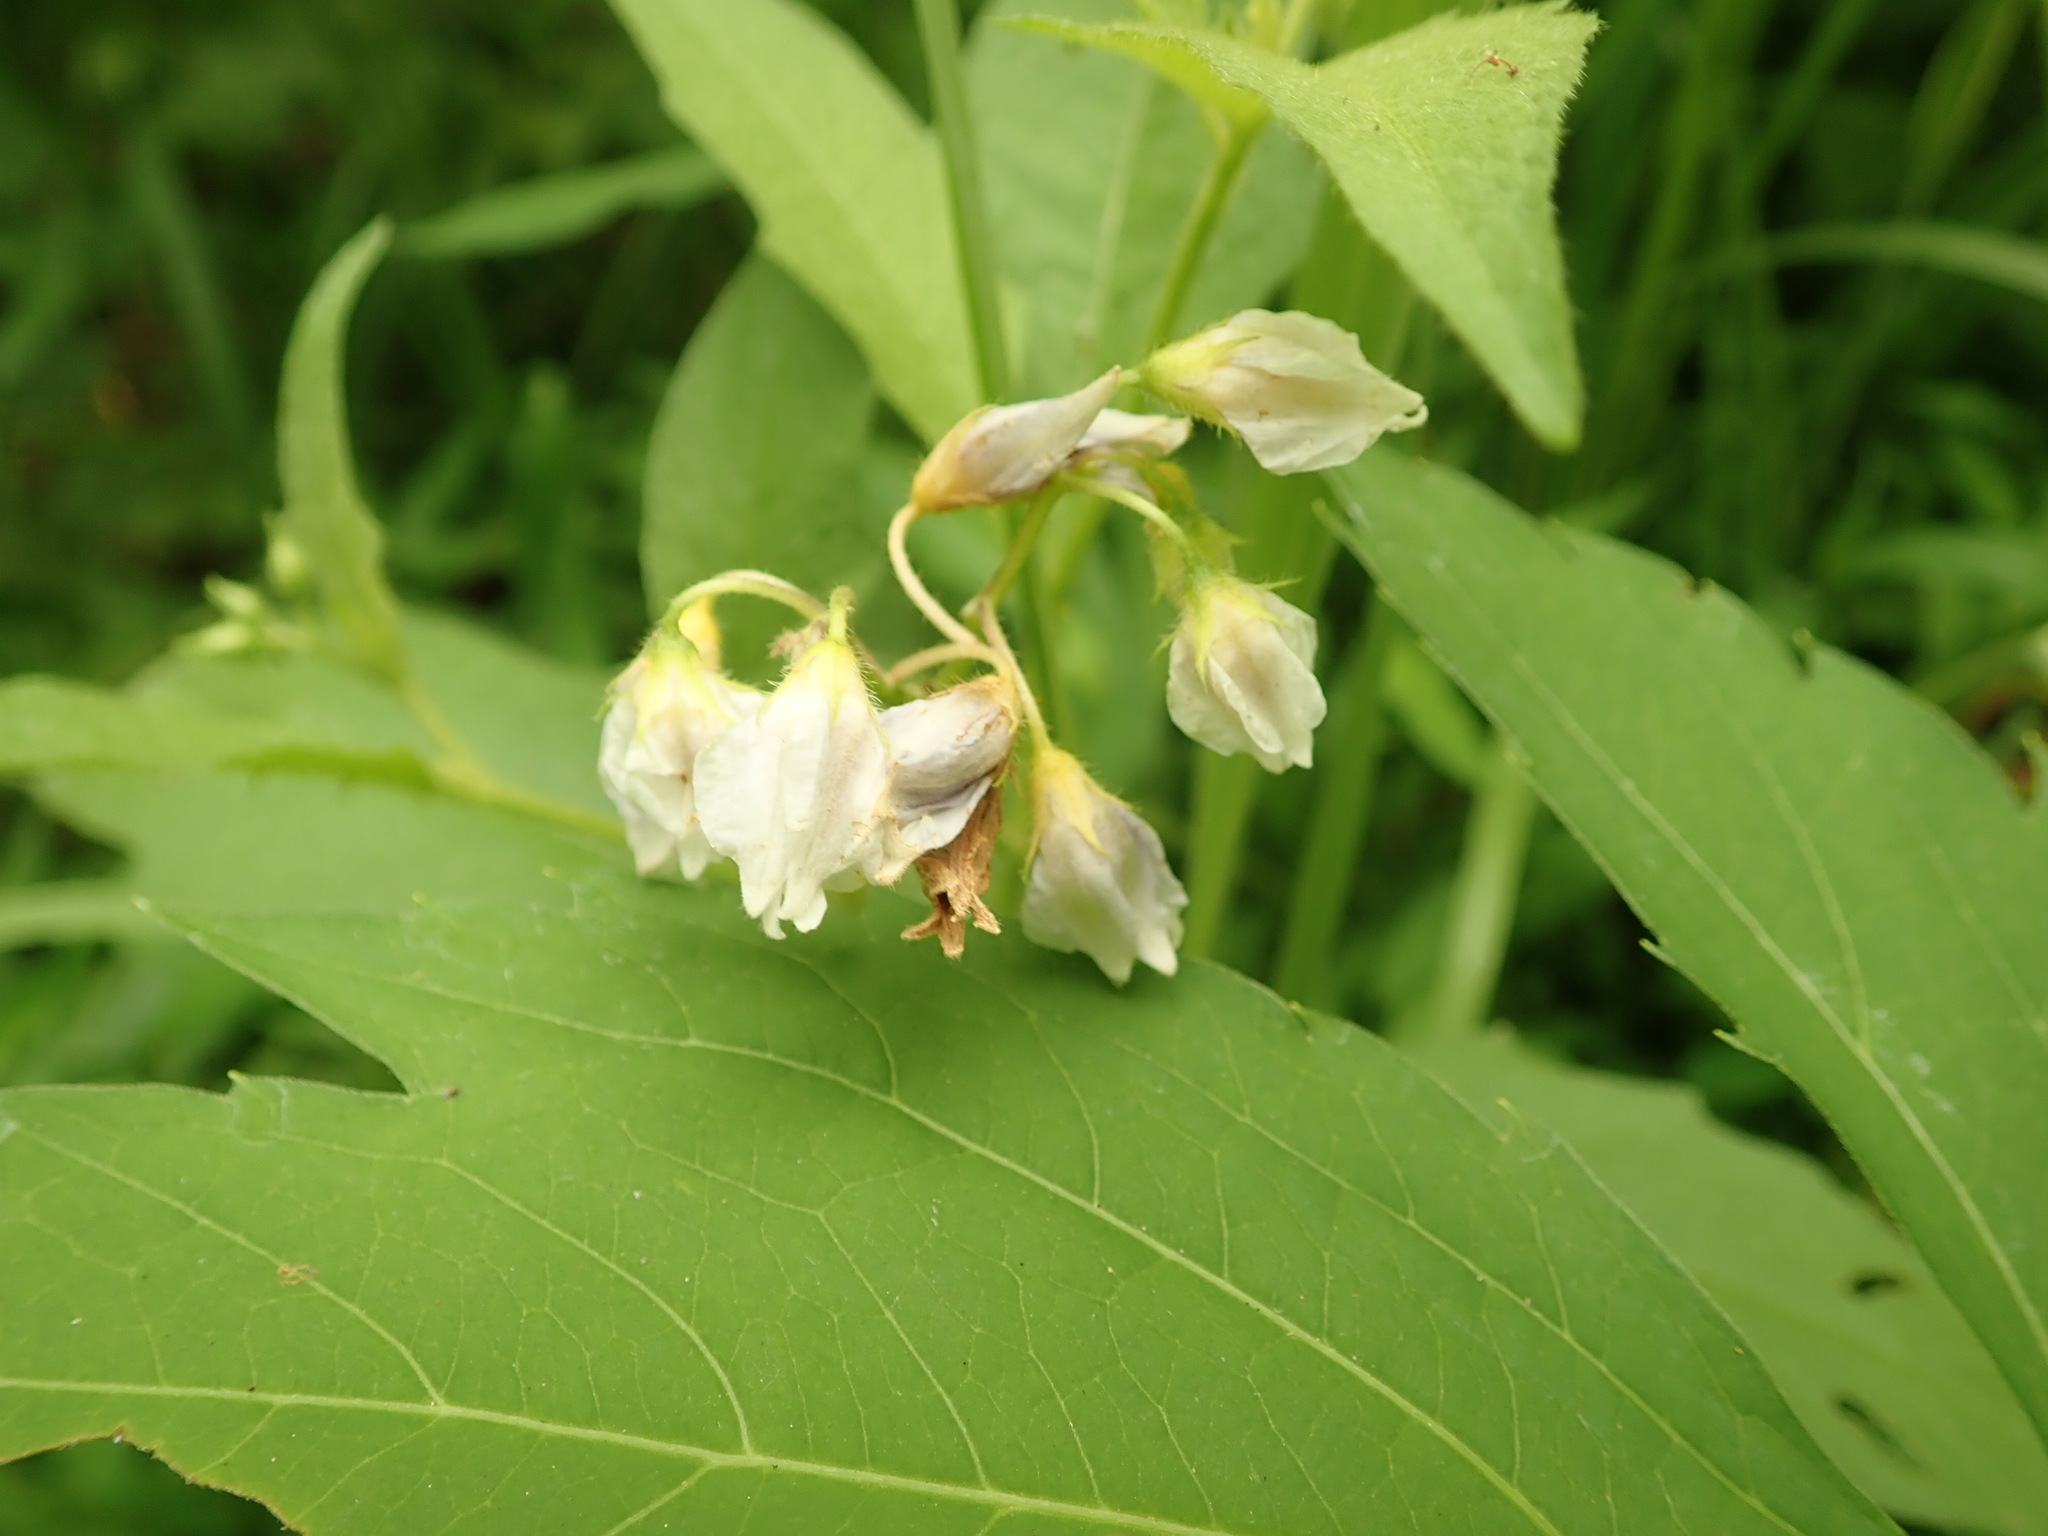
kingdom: Plantae
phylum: Tracheophyta
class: Magnoliopsida
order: Solanales
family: Solanaceae
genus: Solanum
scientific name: Solanum carolinense
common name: Horse-nettle
